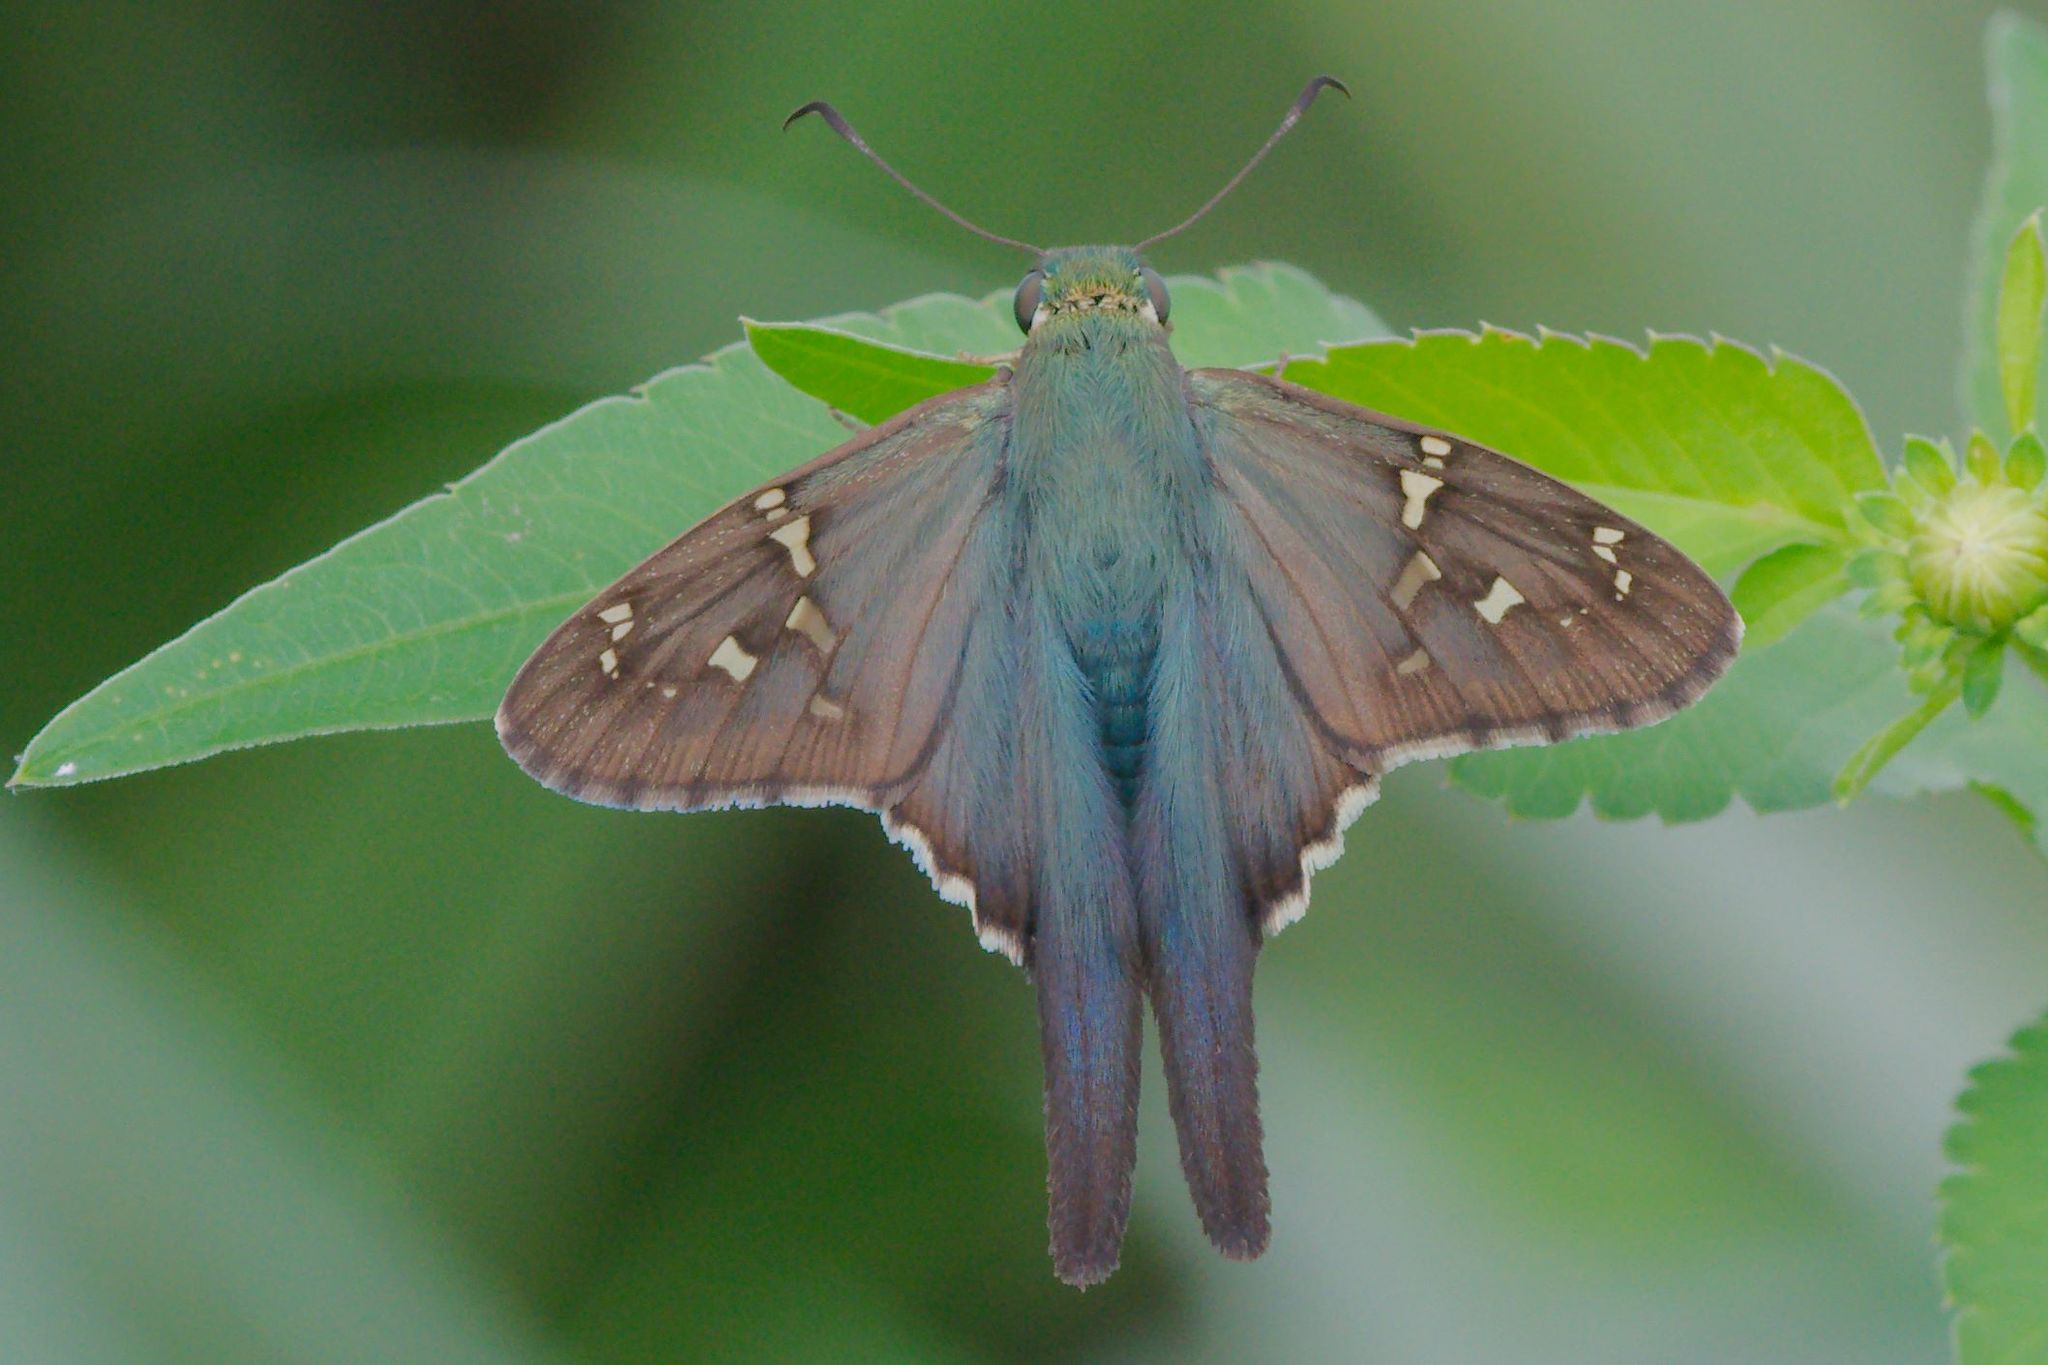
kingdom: Animalia
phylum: Arthropoda
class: Insecta
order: Lepidoptera
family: Hesperiidae
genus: Urbanus
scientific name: Urbanus proteus
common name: Long-tailed skipper
